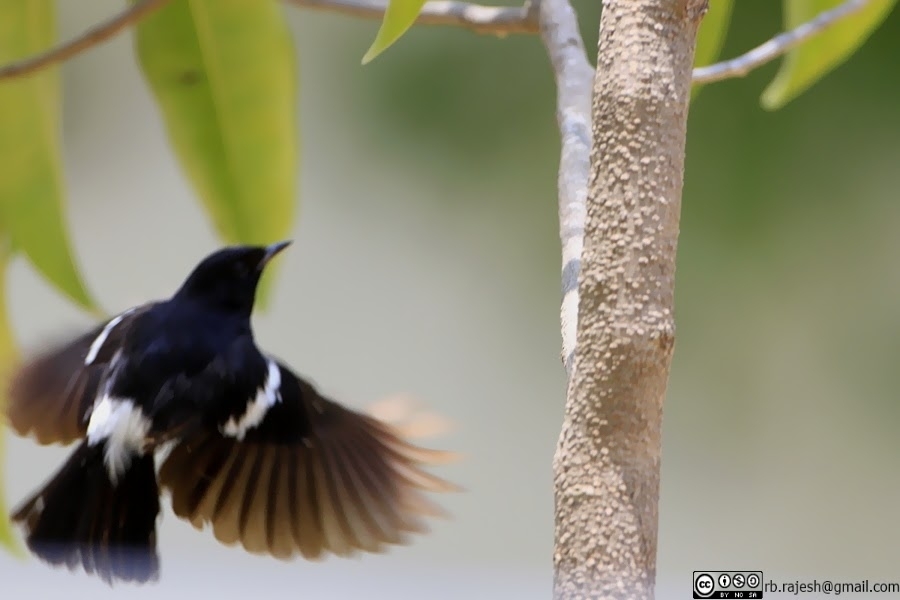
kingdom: Animalia
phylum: Chordata
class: Aves
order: Passeriformes
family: Muscicapidae
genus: Saxicola
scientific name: Saxicola caprata
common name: Pied bush chat
